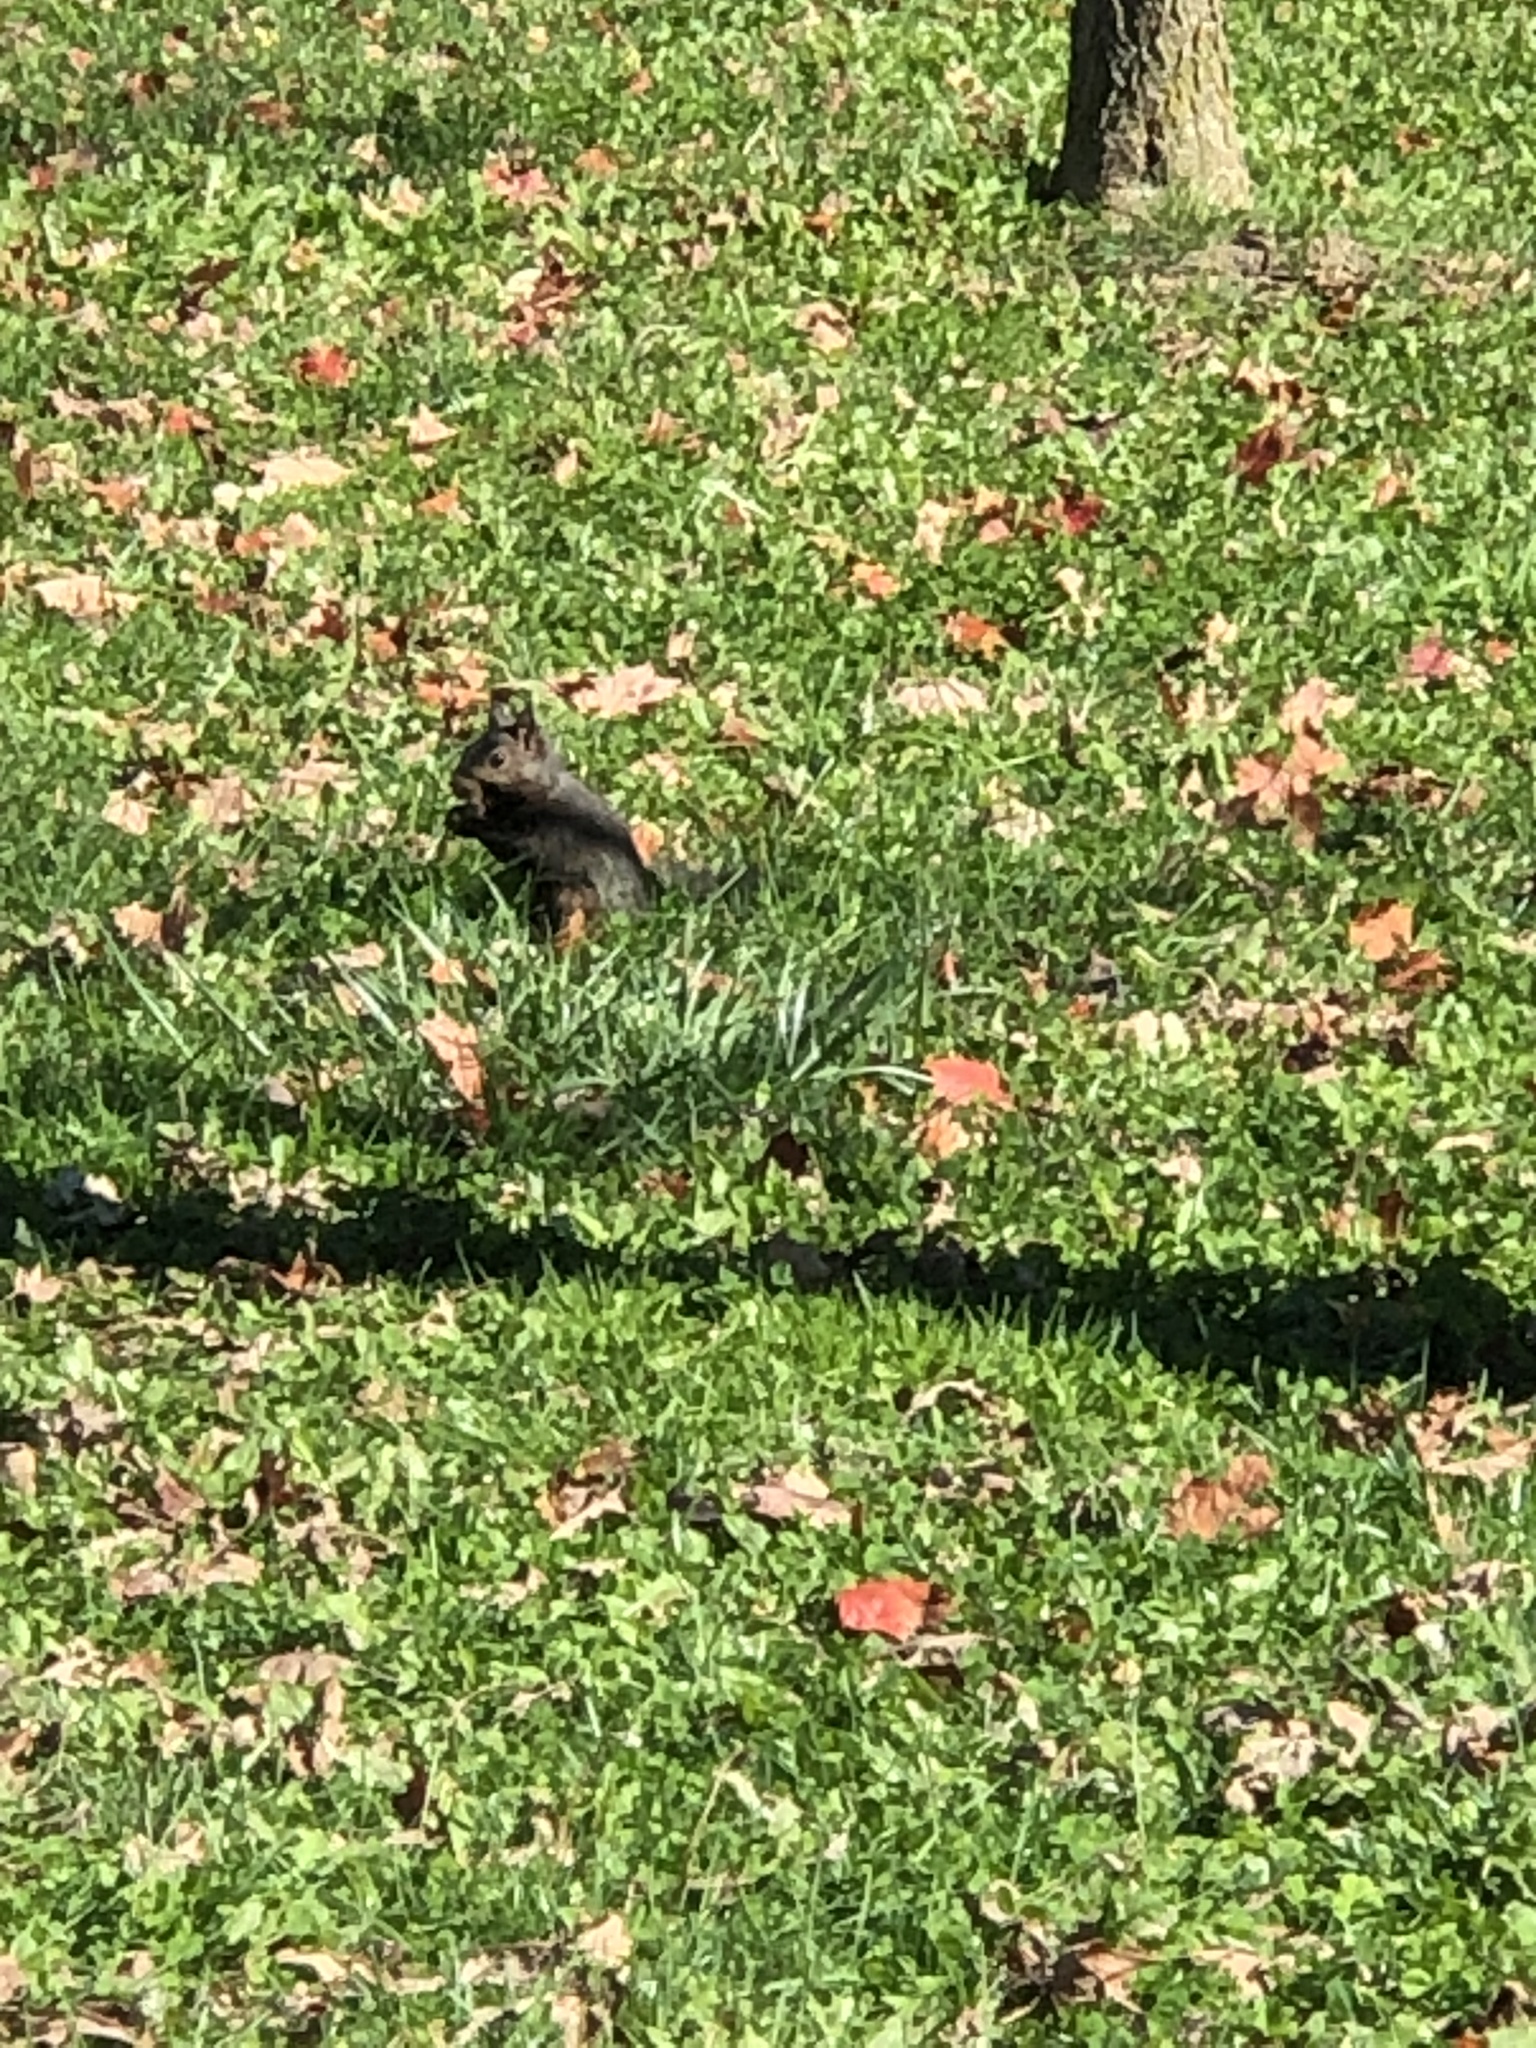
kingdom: Animalia
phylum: Chordata
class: Mammalia
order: Rodentia
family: Sciuridae
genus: Sciurus
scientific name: Sciurus carolinensis
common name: Eastern gray squirrel
